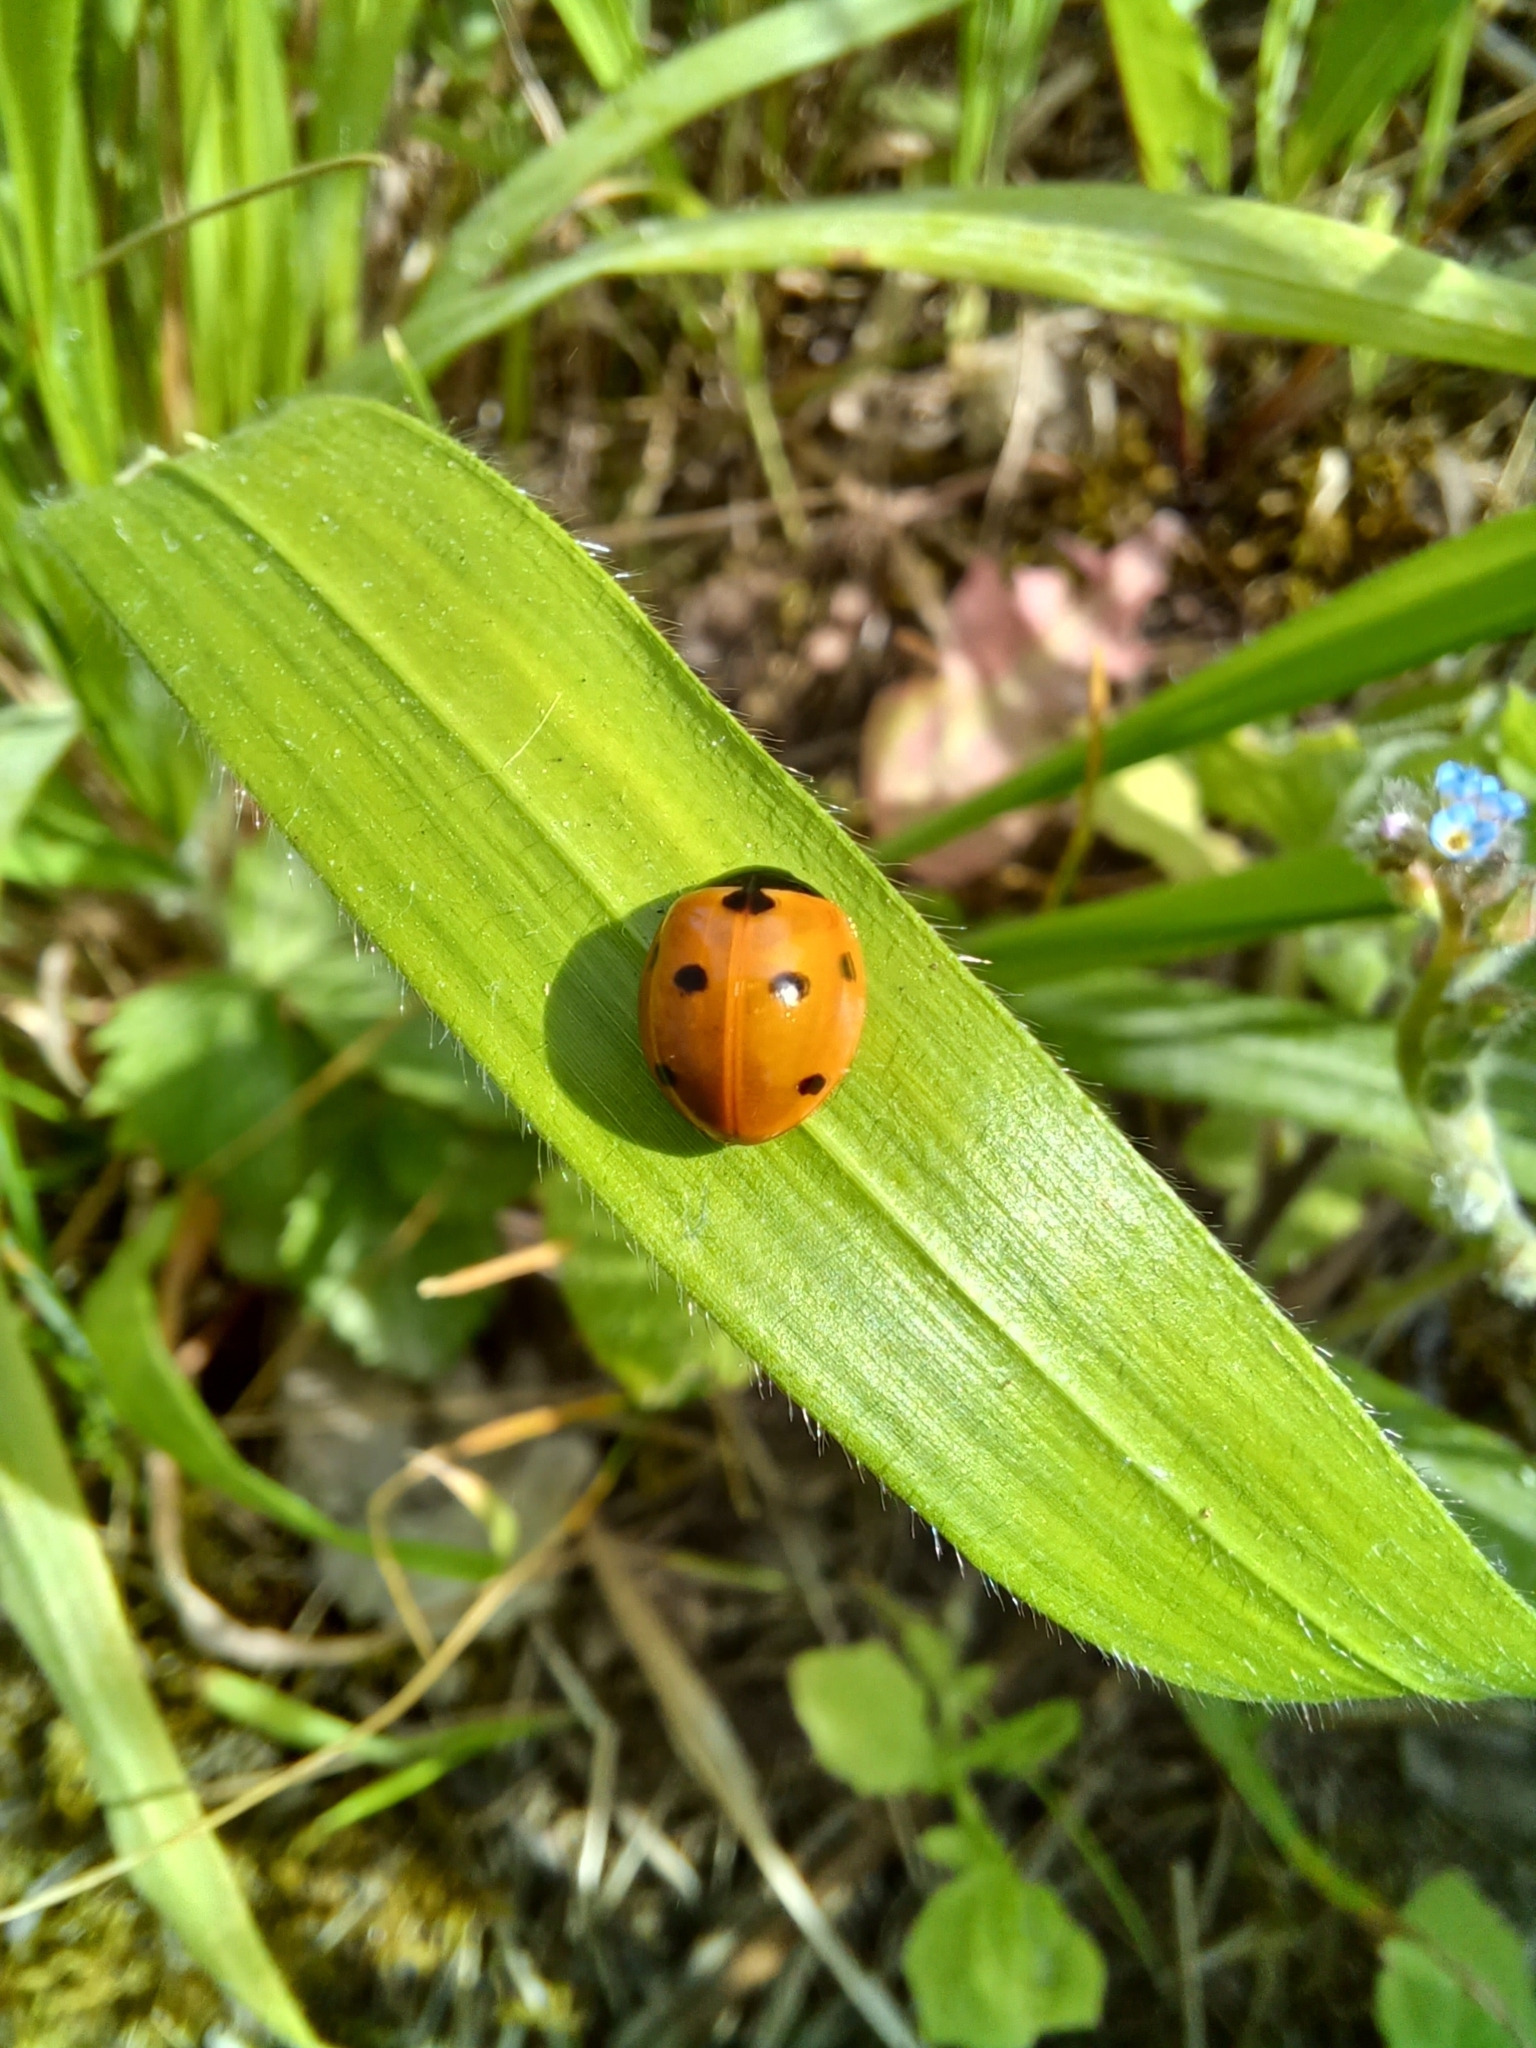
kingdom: Animalia
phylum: Arthropoda
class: Insecta
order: Coleoptera
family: Coccinellidae
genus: Coccinella
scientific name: Coccinella septempunctata
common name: Sevenspotted lady beetle
